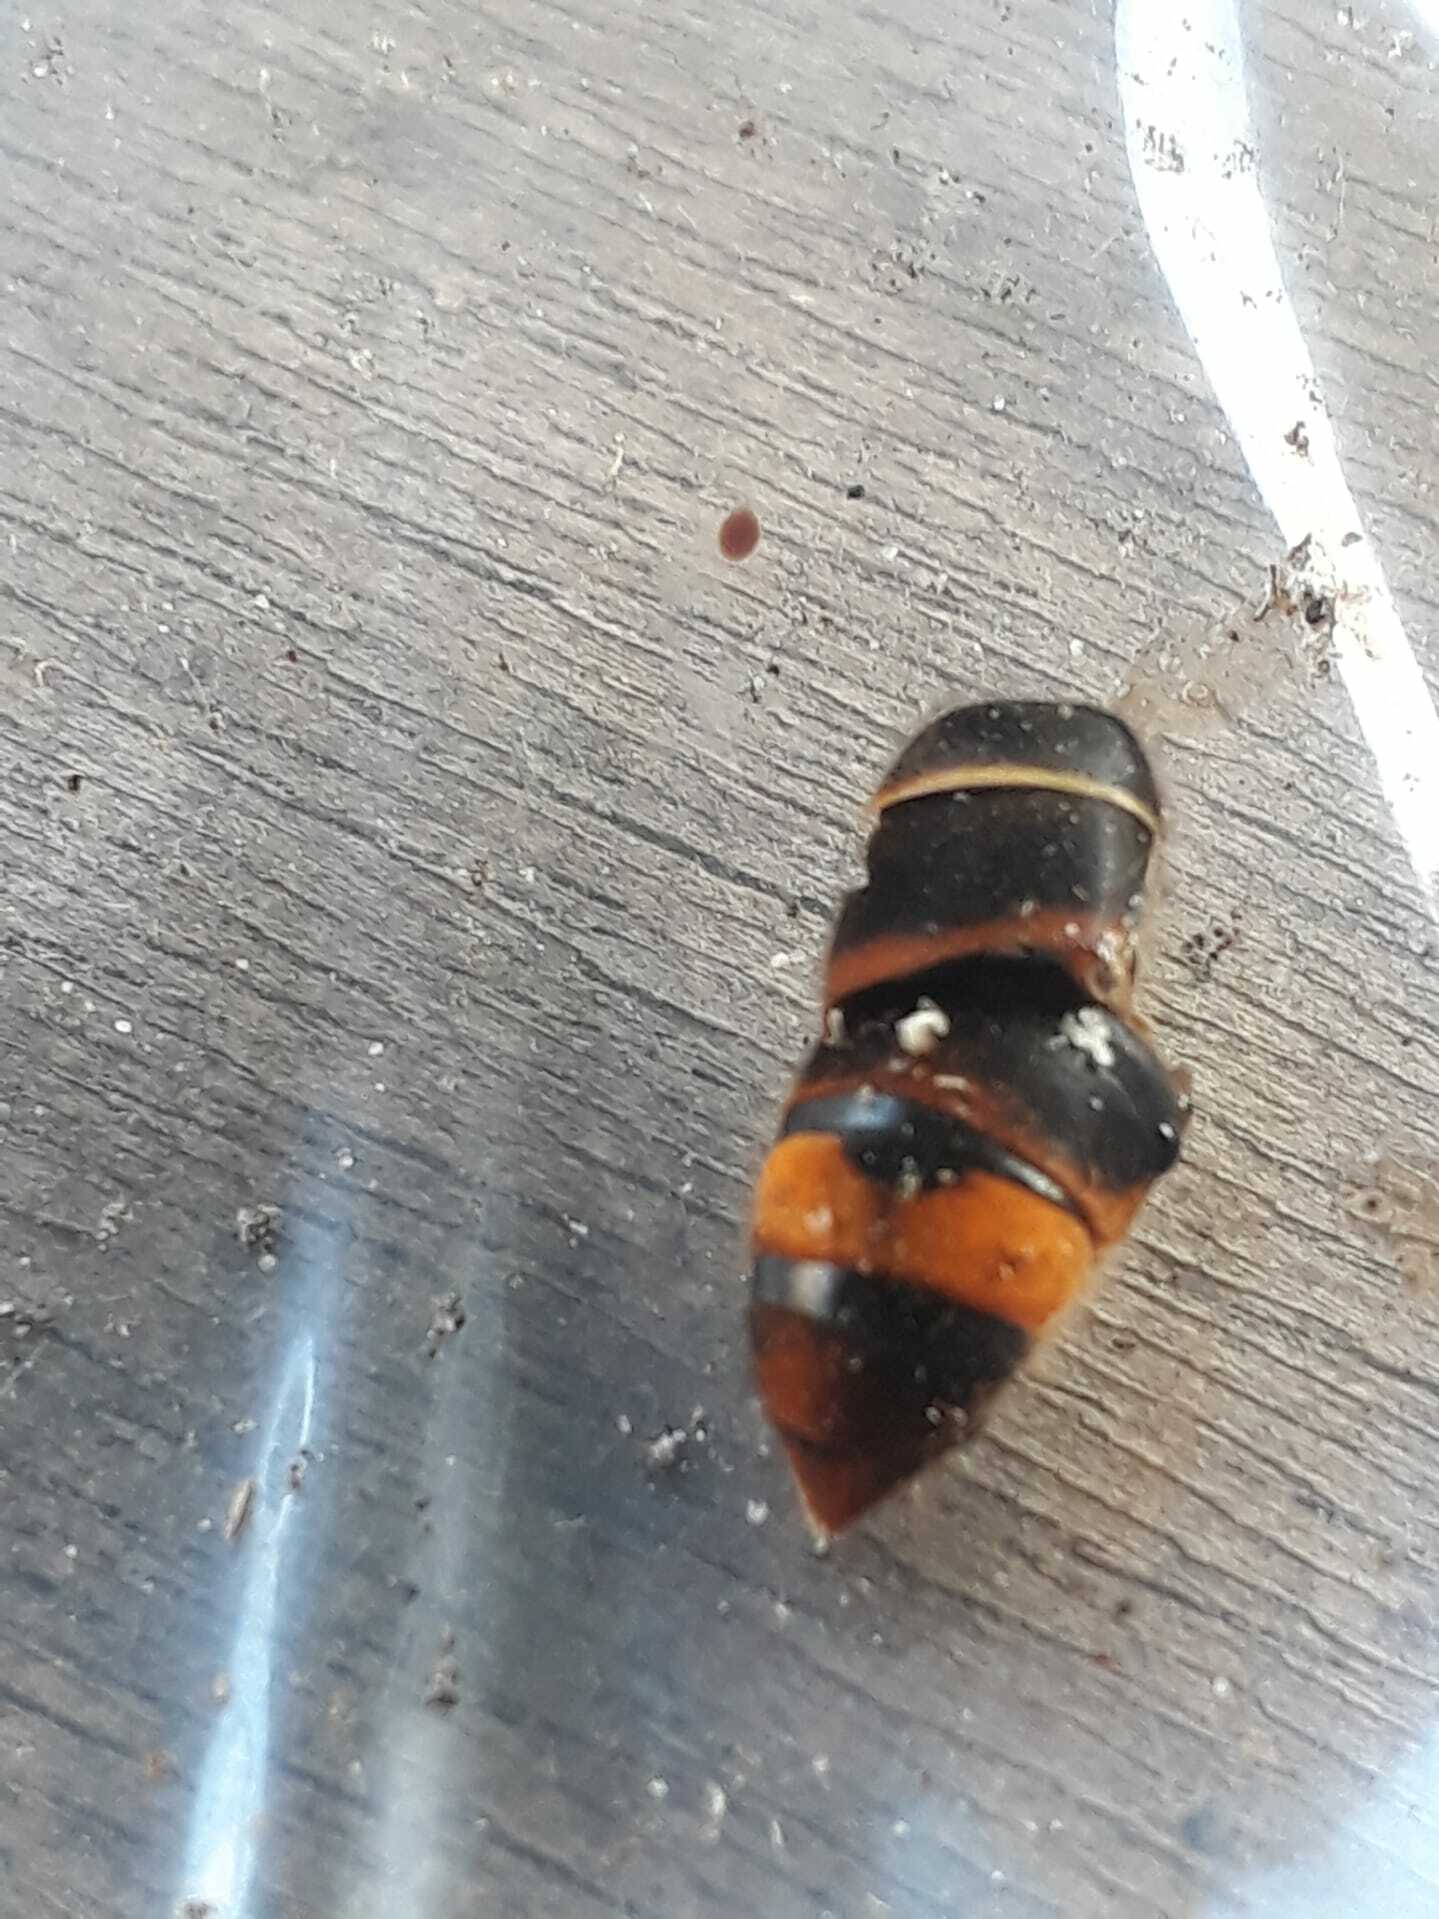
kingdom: Animalia
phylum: Arthropoda
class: Insecta
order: Hymenoptera
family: Vespidae
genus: Vespa
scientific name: Vespa velutina
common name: Asian hornet
